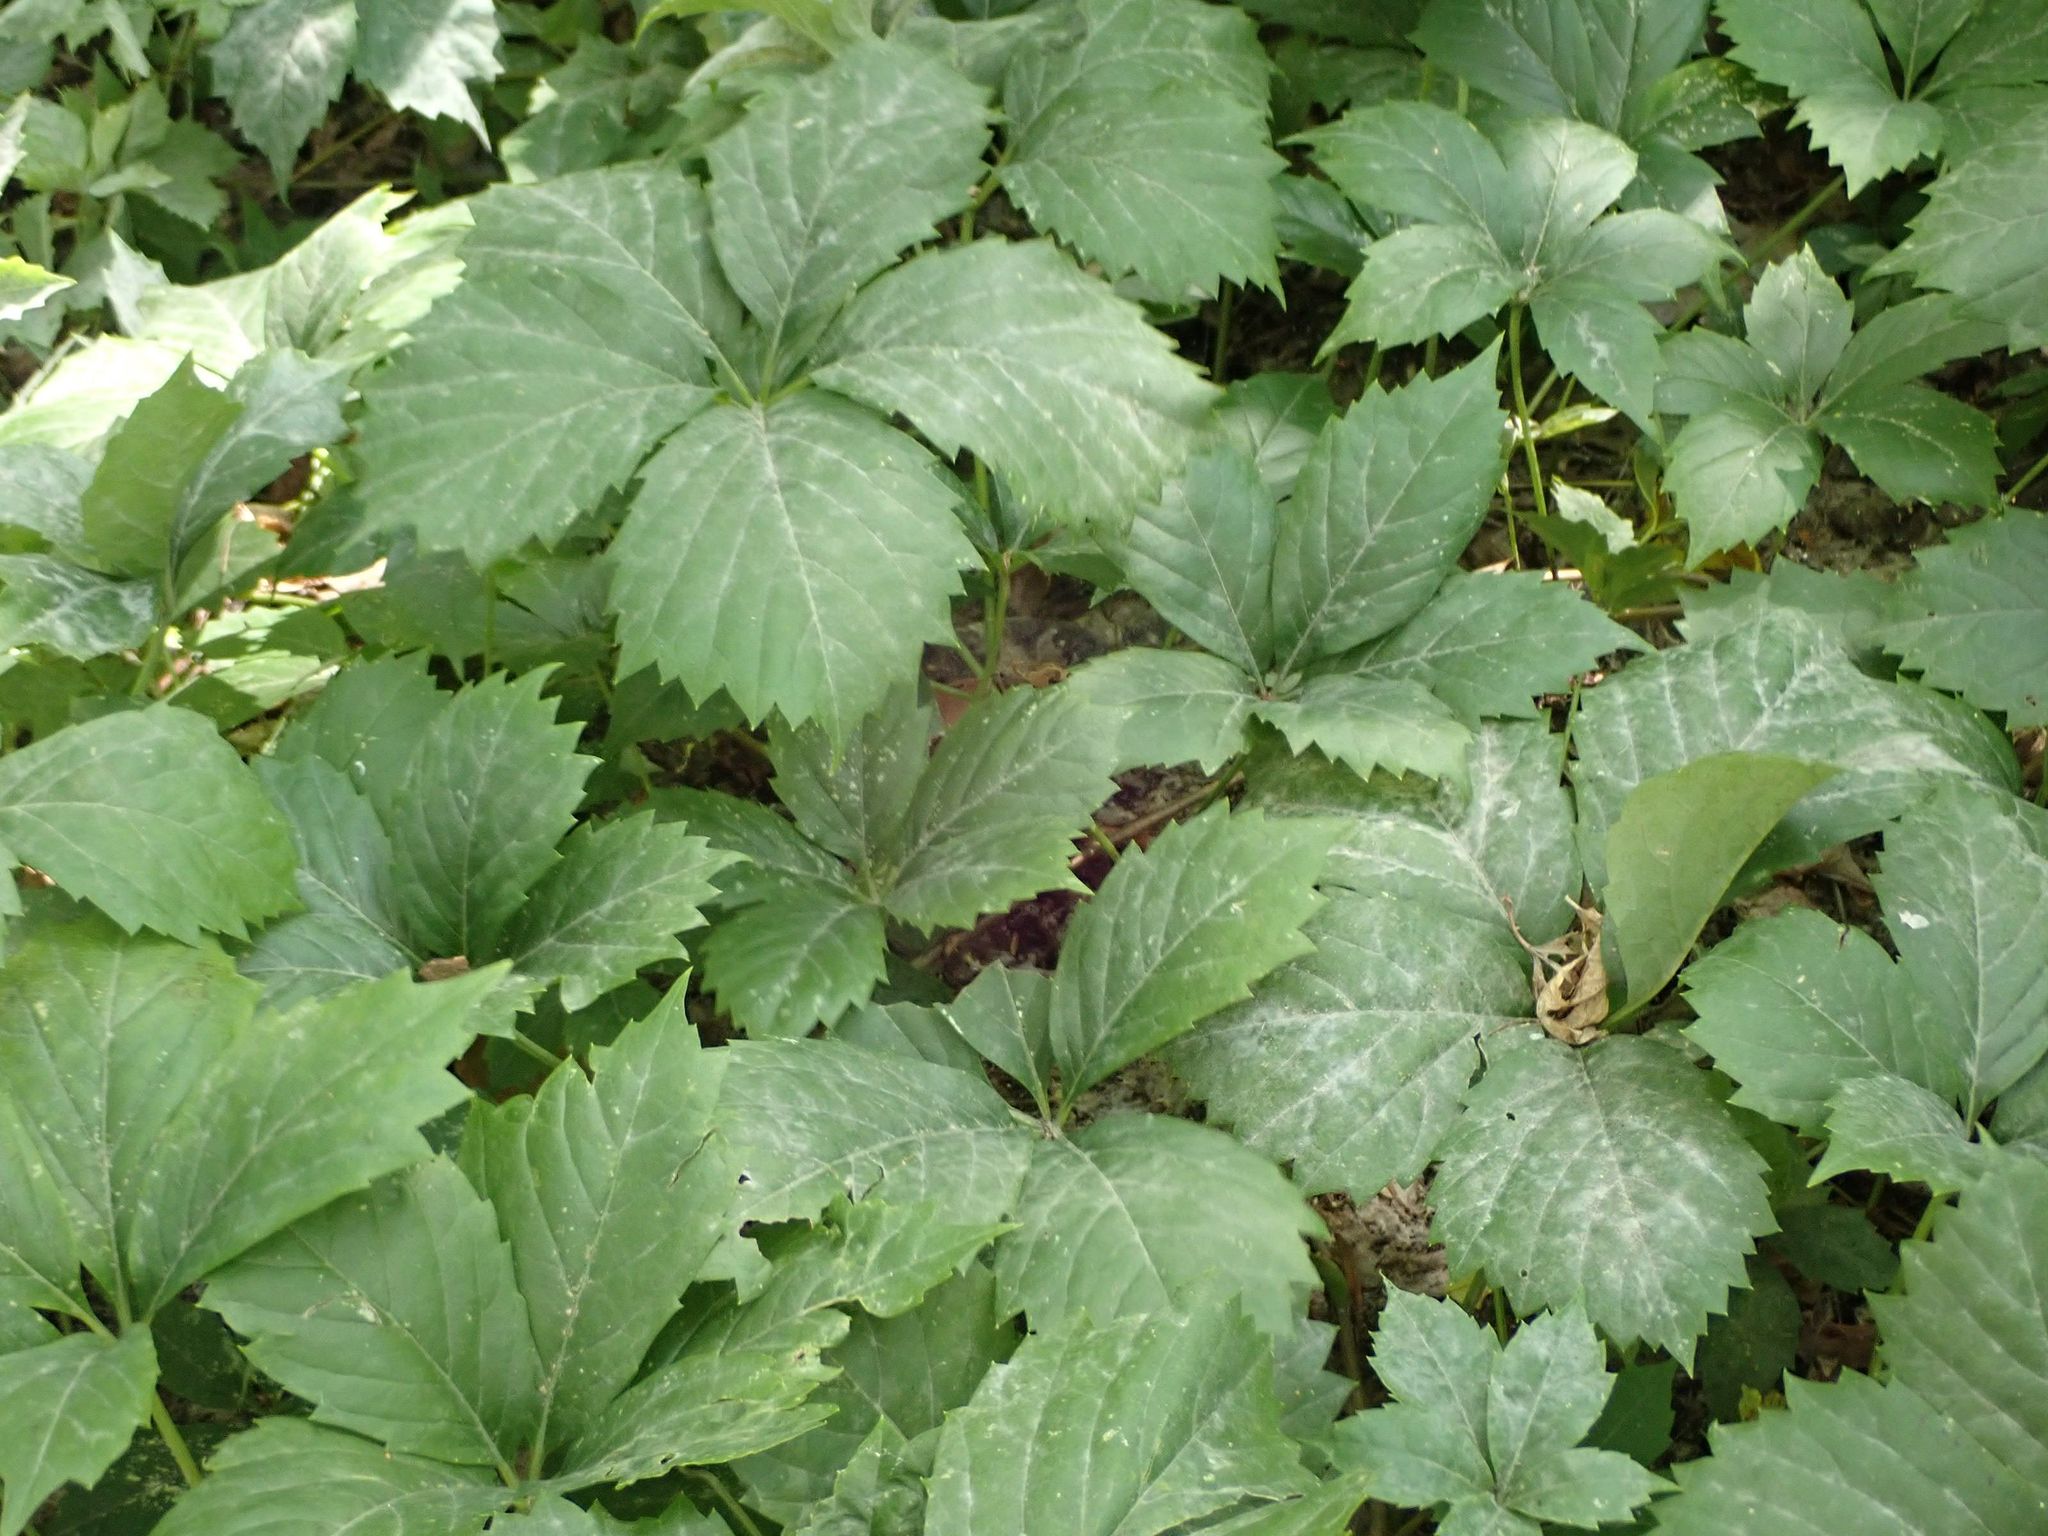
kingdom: Plantae
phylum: Tracheophyta
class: Magnoliopsida
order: Vitales
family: Vitaceae
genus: Parthenocissus
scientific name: Parthenocissus quinquefolia
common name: Virginia-creeper
